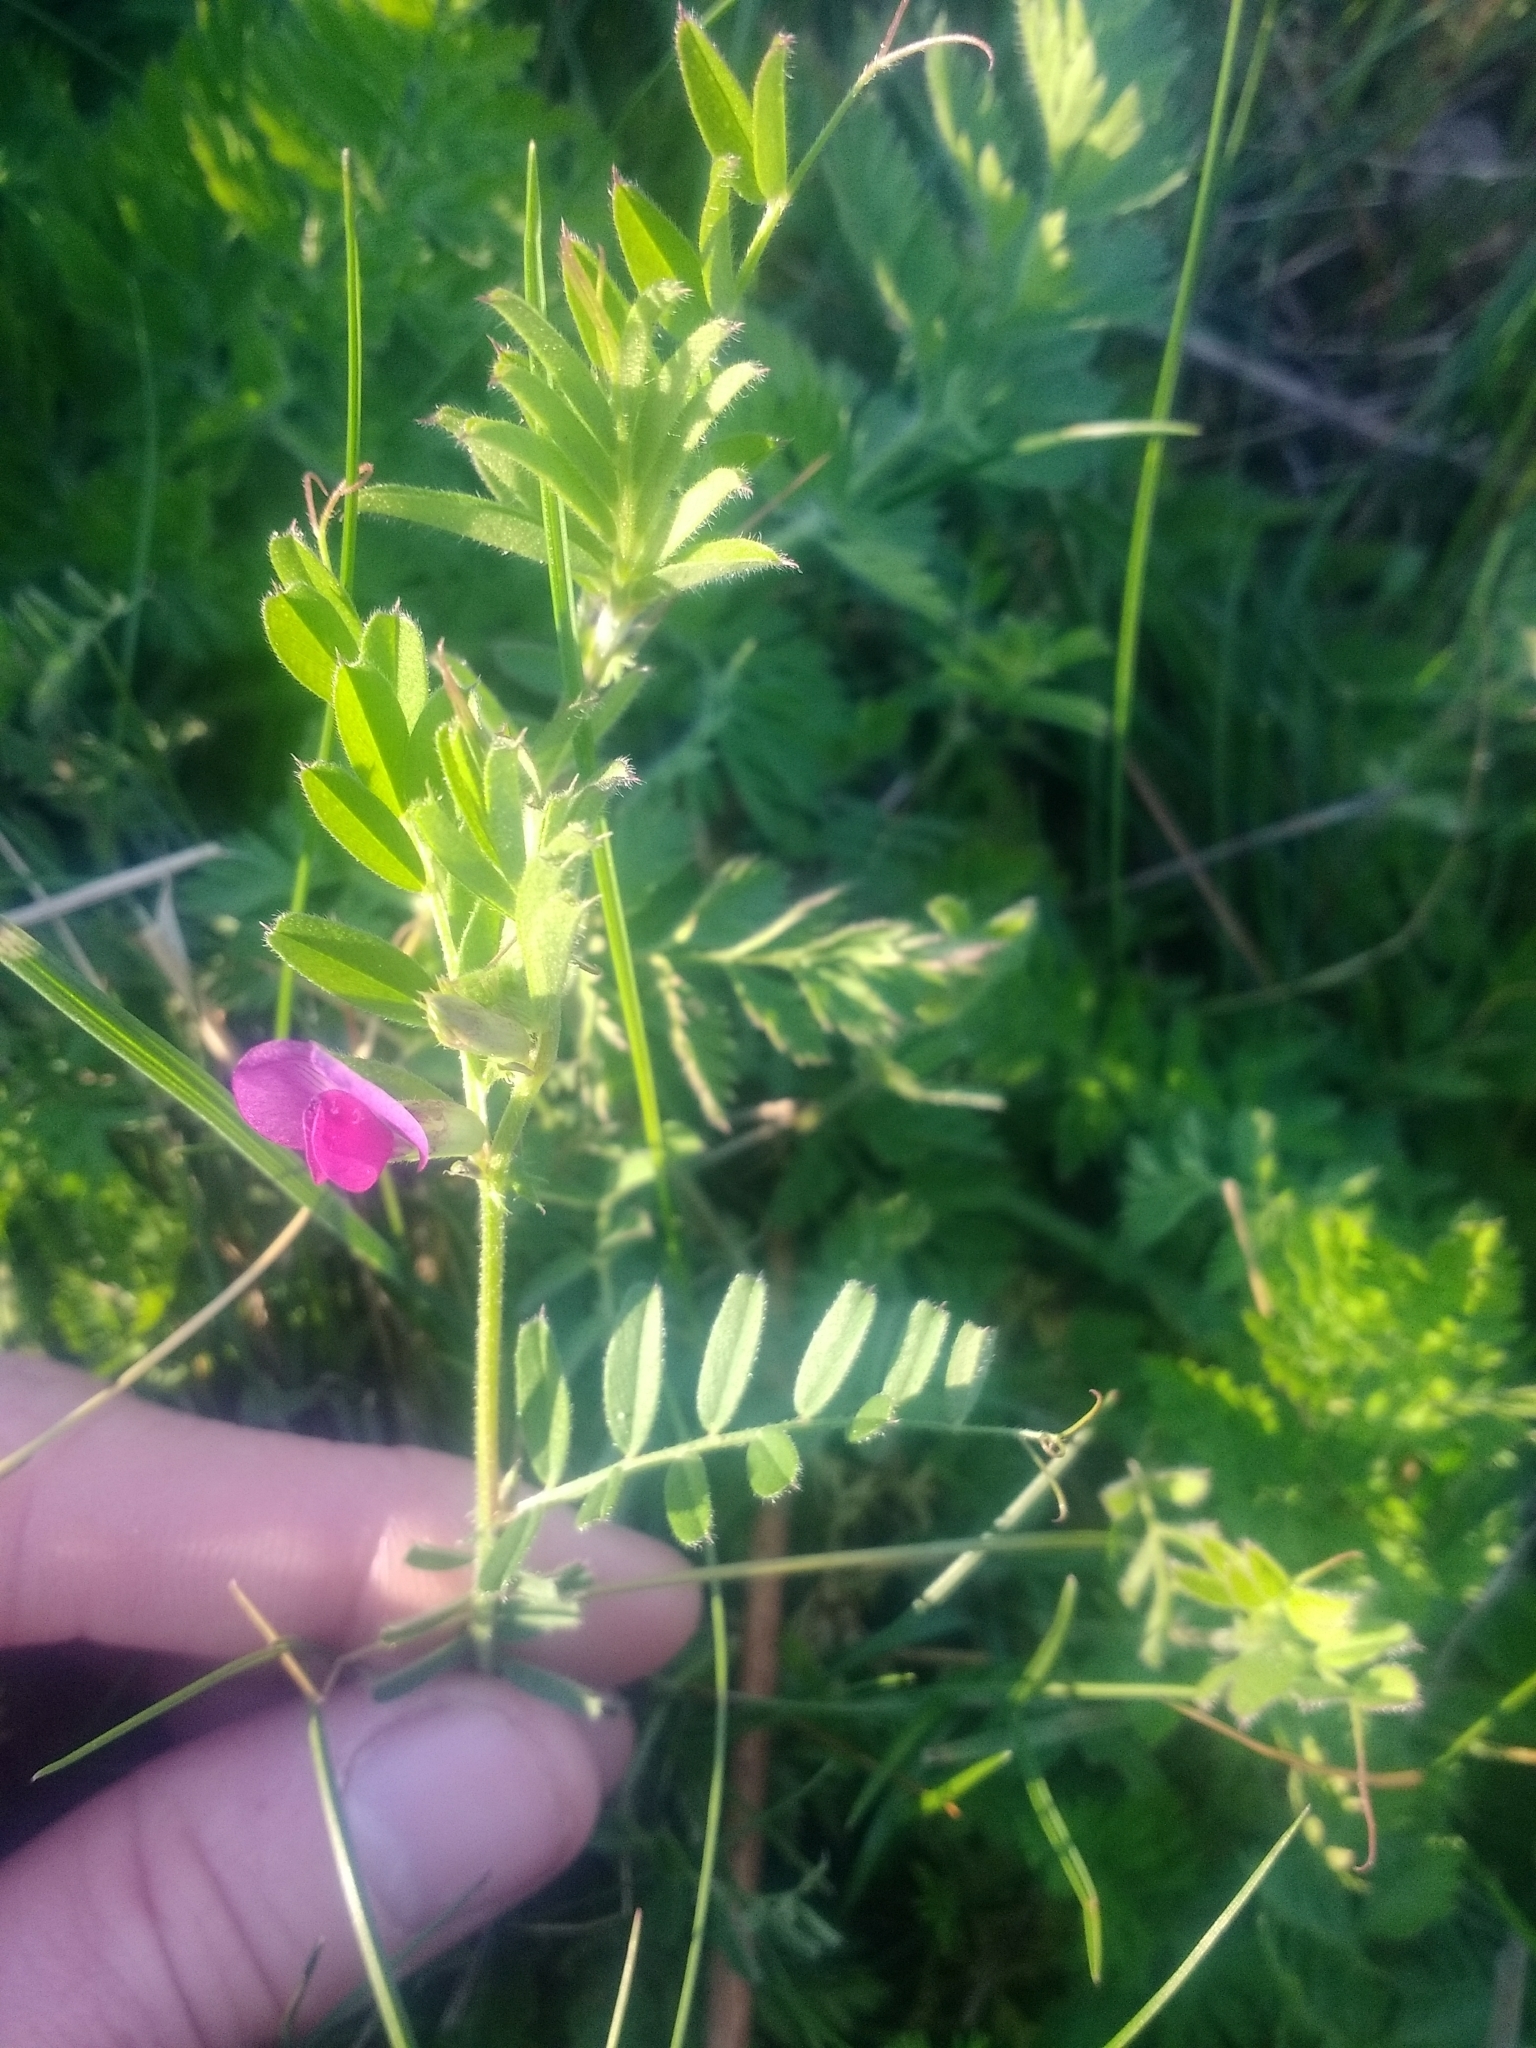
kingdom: Plantae
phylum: Tracheophyta
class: Magnoliopsida
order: Fabales
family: Fabaceae
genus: Vicia
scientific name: Vicia sativa
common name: Garden vetch
